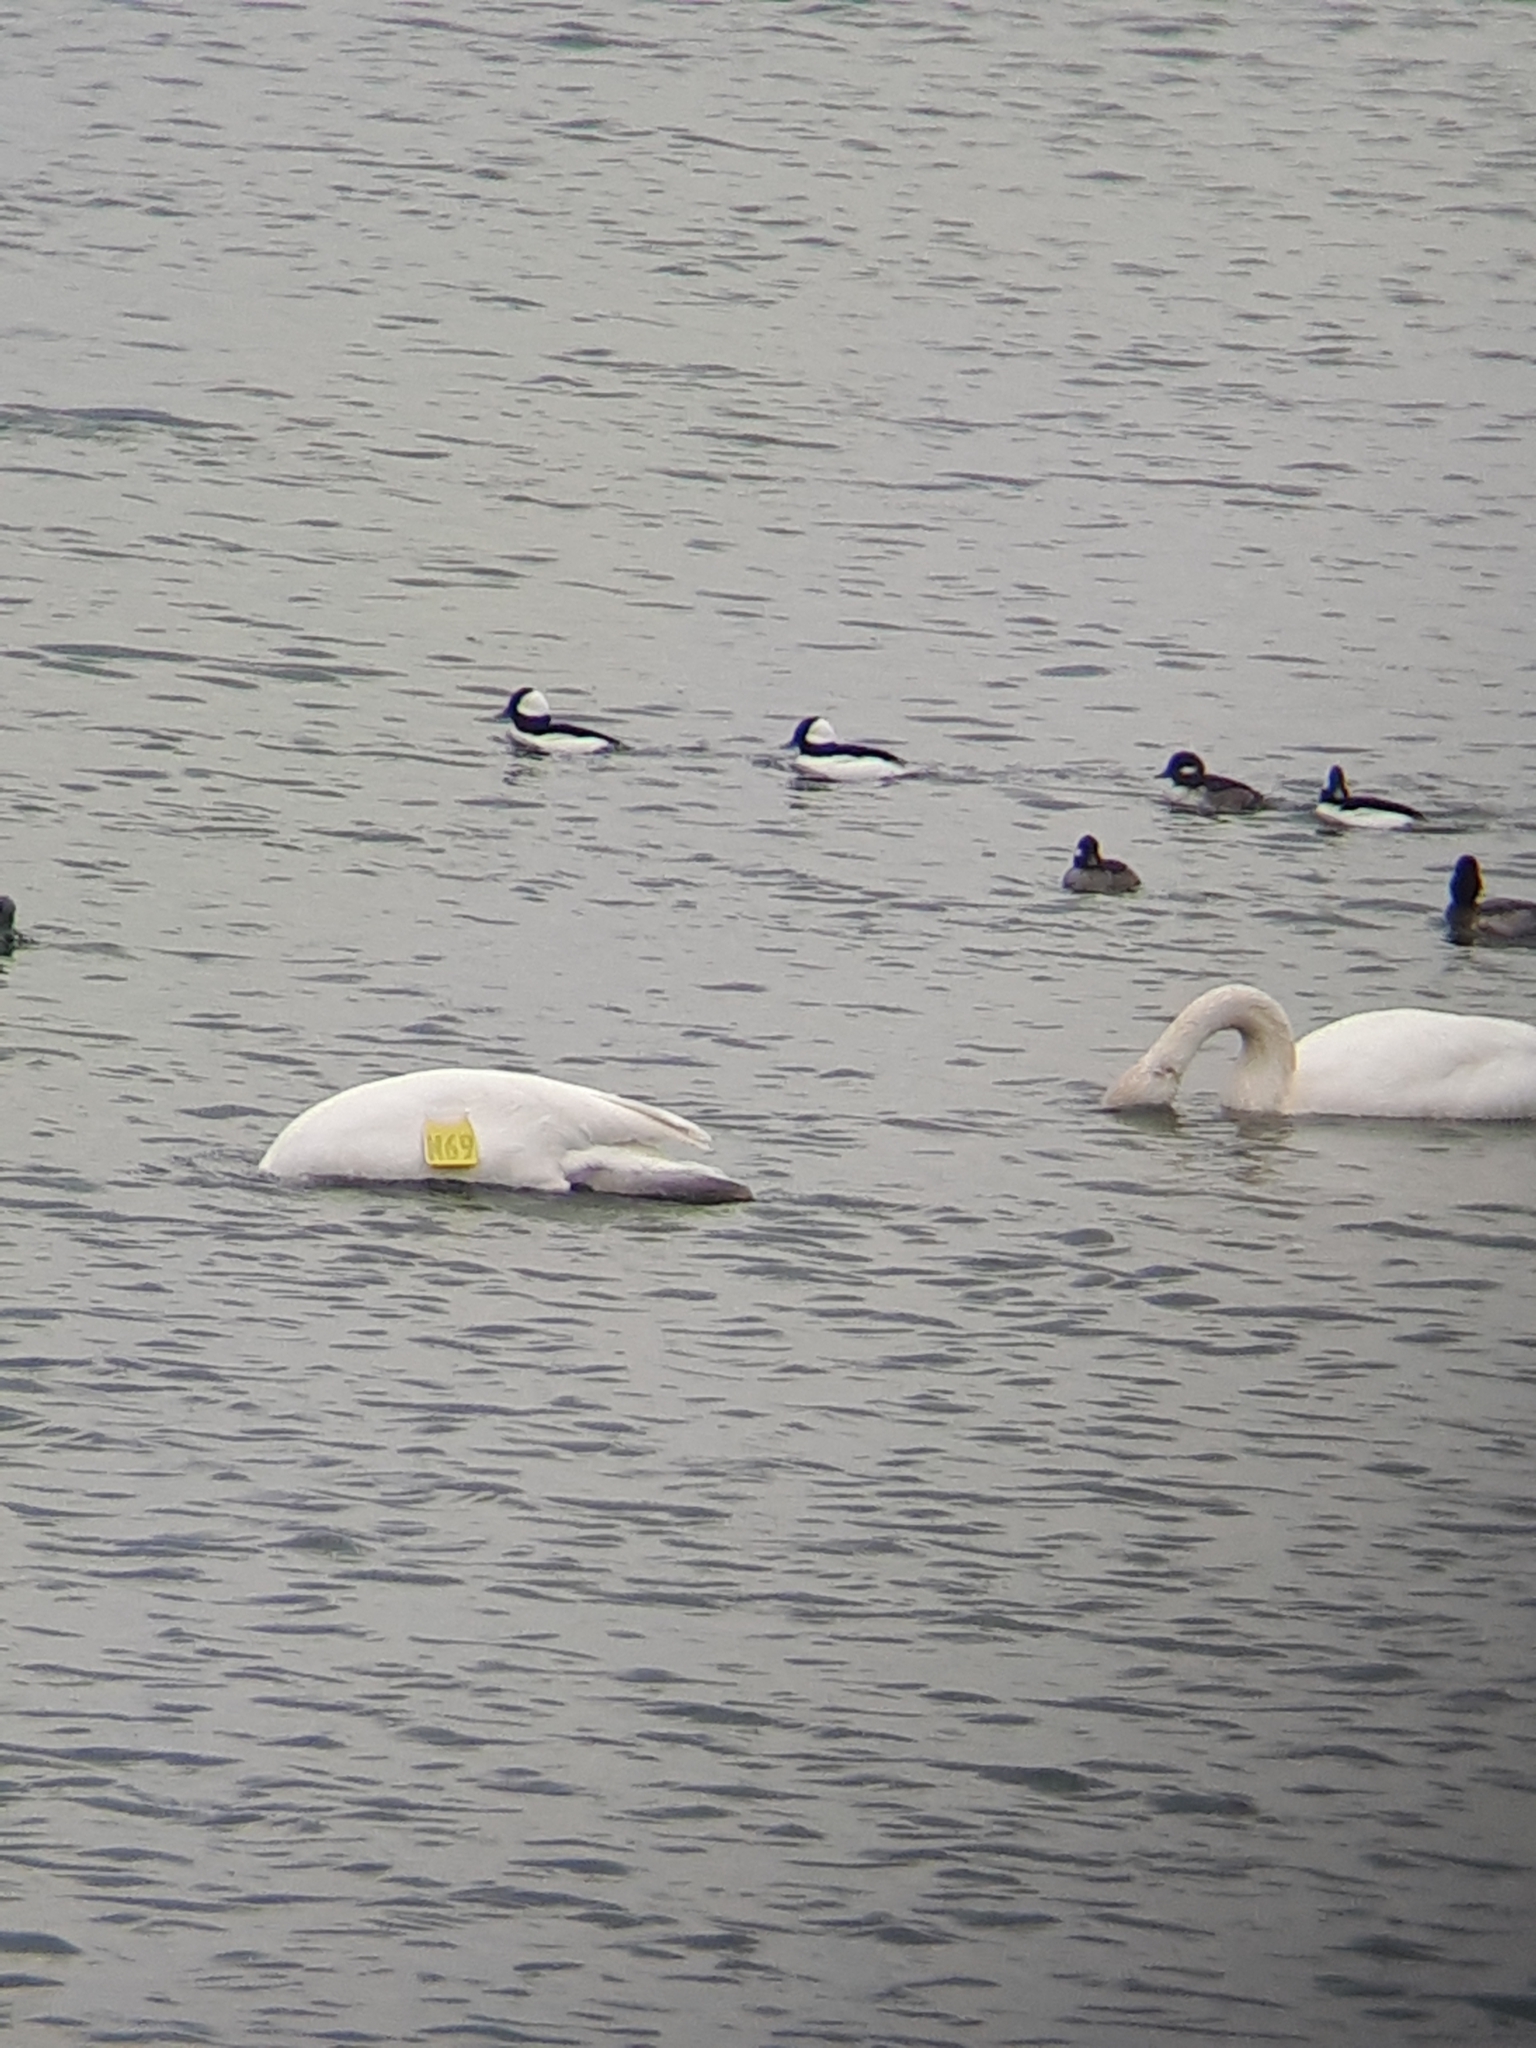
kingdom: Animalia
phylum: Chordata
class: Aves
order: Anseriformes
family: Anatidae
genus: Cygnus
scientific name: Cygnus buccinator
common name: Trumpeter swan
